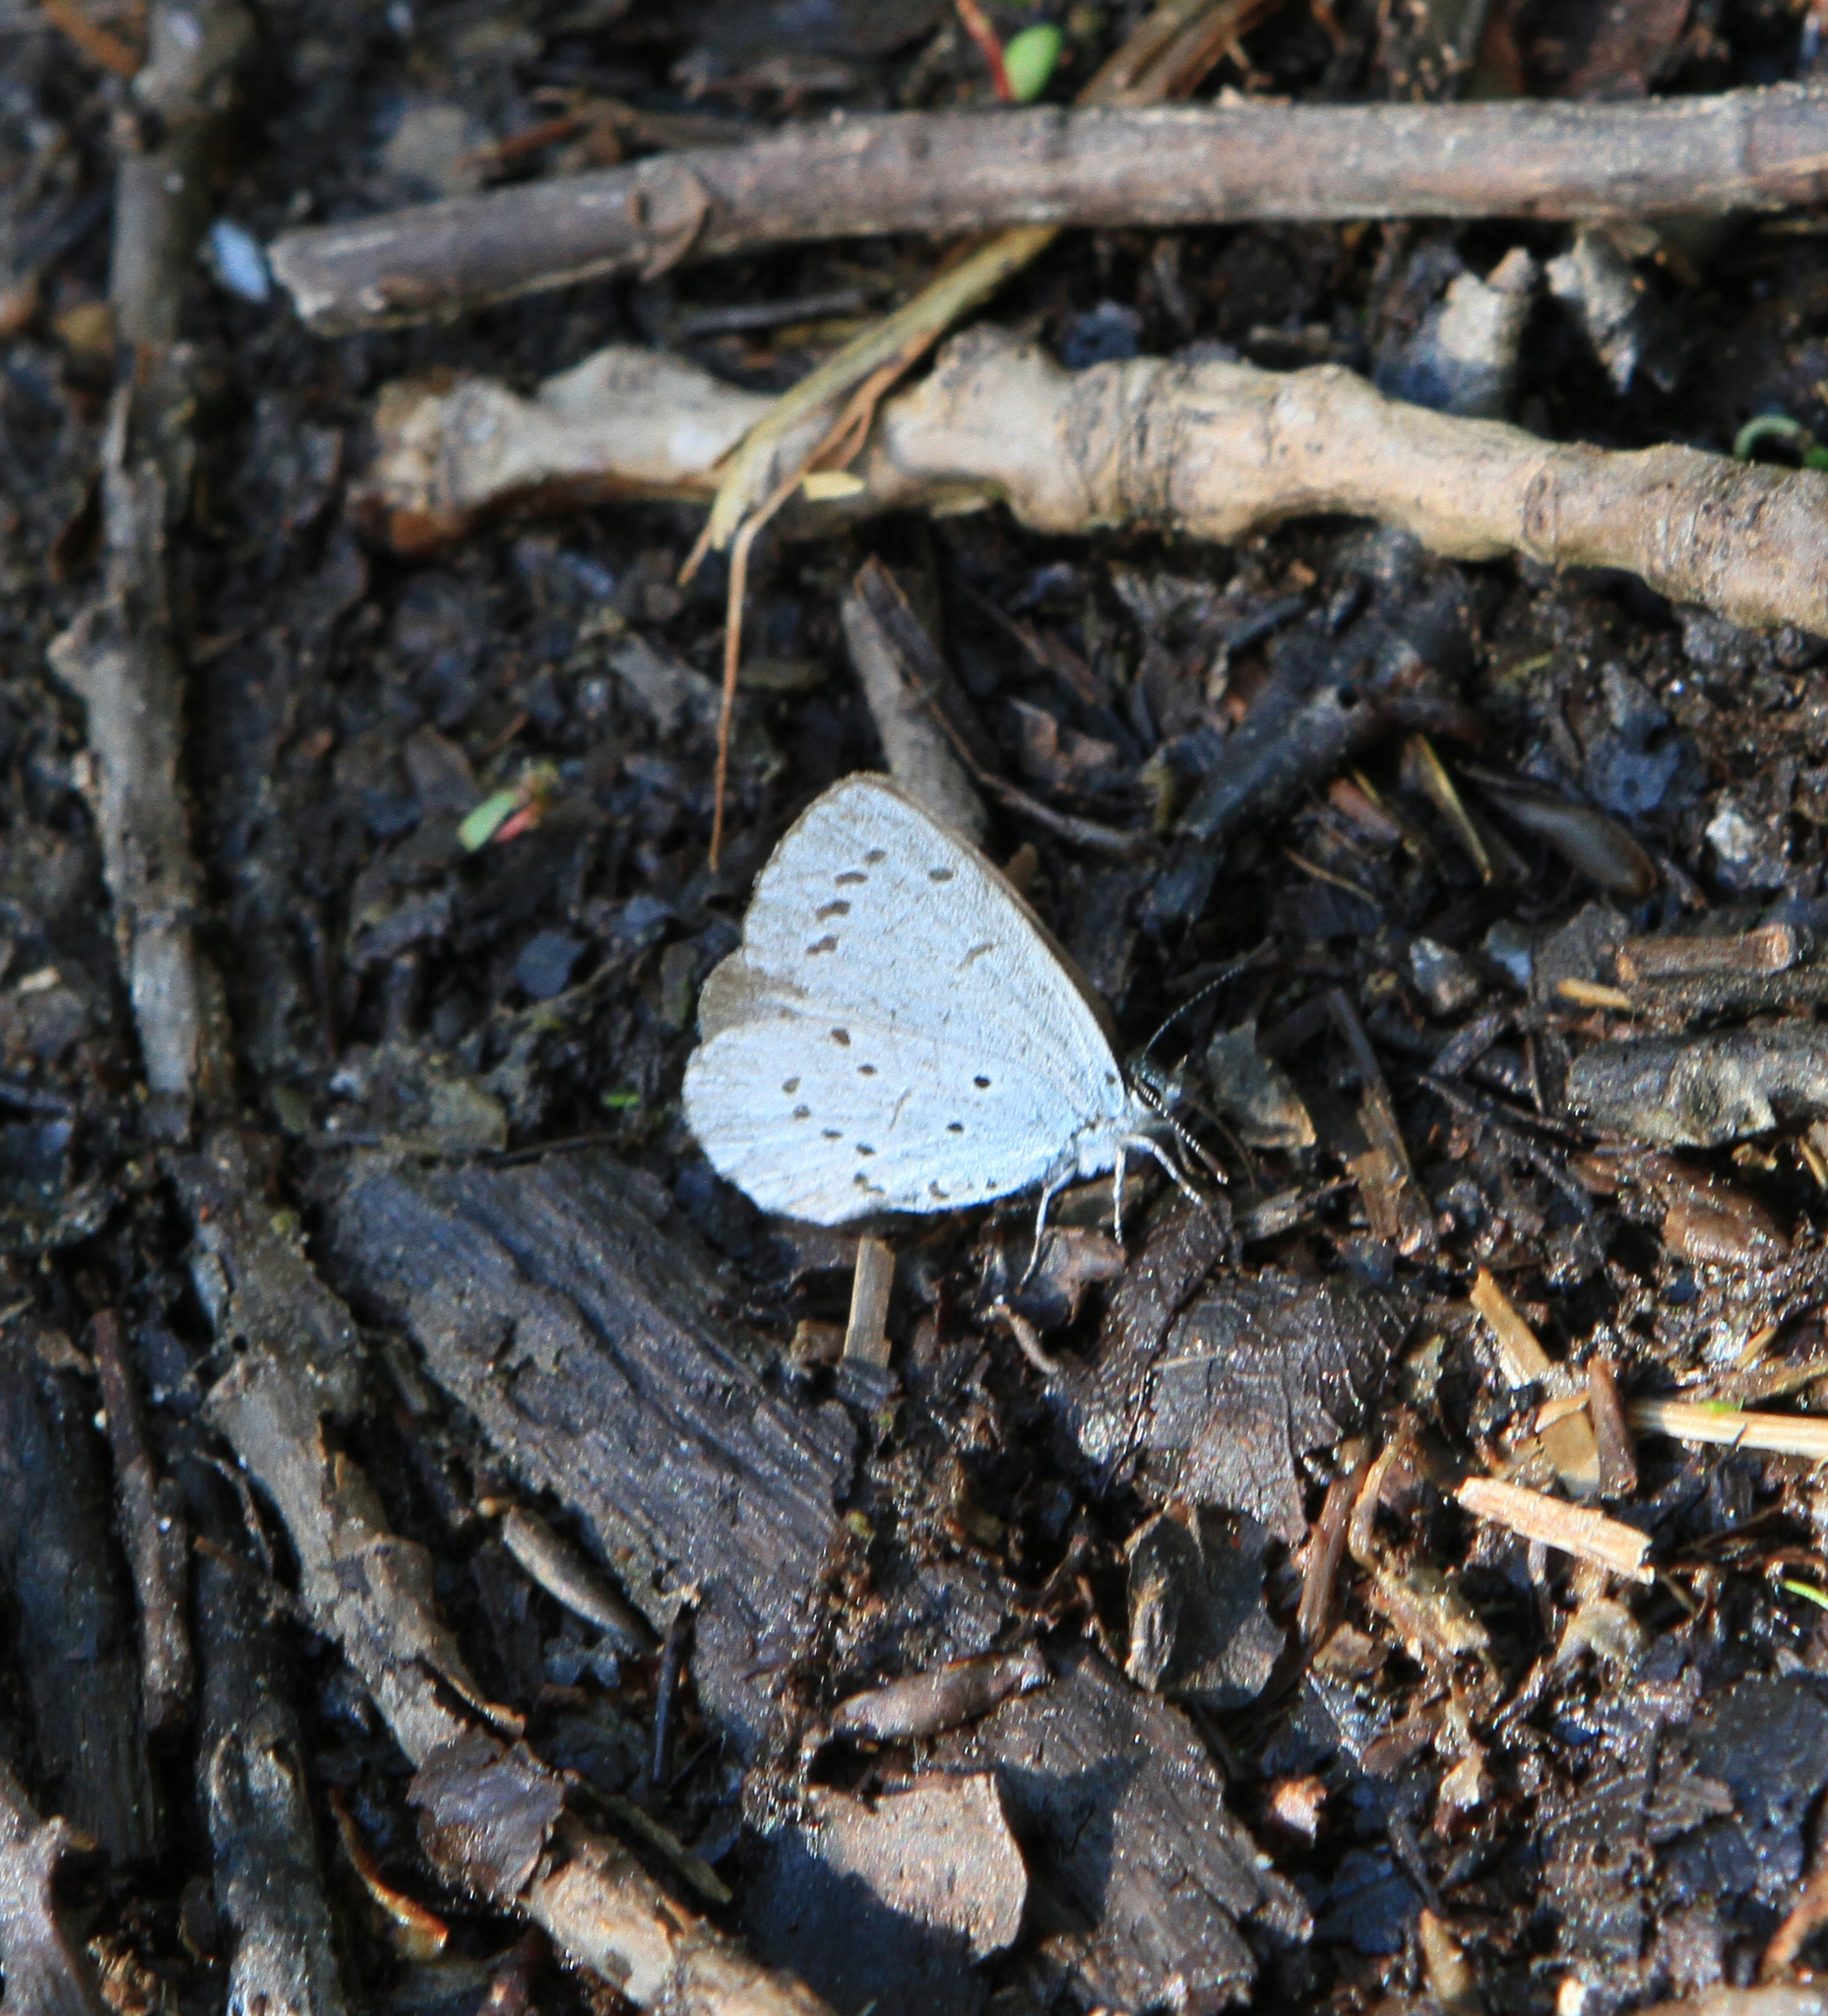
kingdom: Animalia
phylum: Arthropoda
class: Insecta
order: Lepidoptera
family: Lycaenidae
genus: Celastrina
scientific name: Celastrina argiolus
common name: Holly blue
